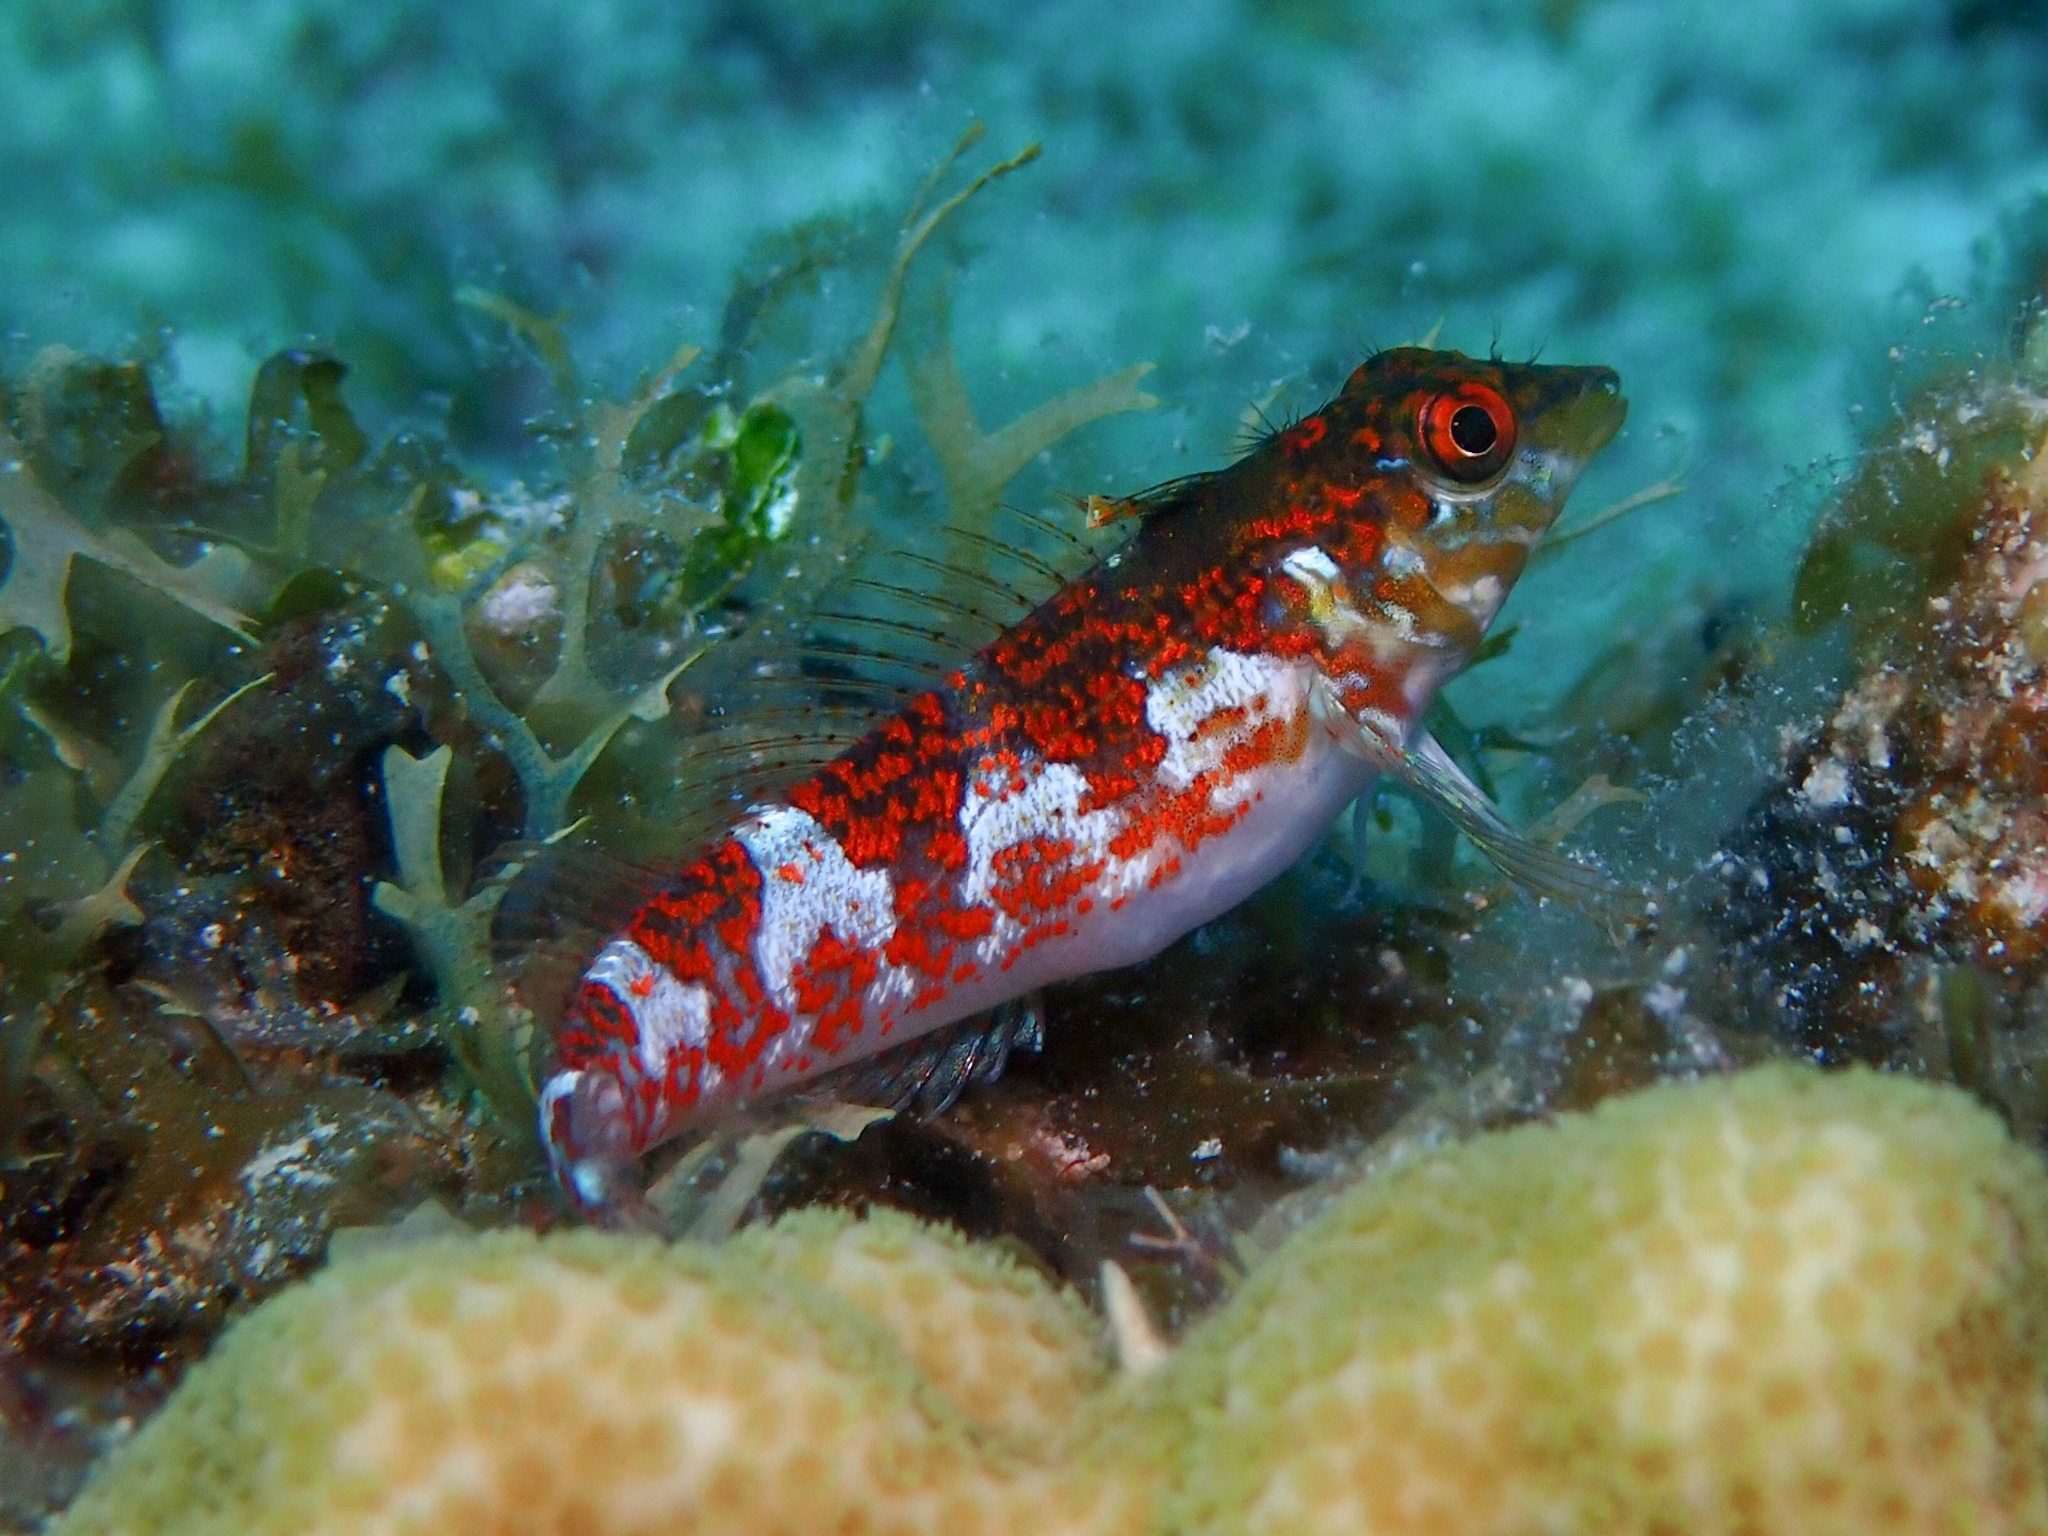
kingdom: Animalia
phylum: Chordata
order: Perciformes
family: Labrisomidae
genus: Malacoctenus
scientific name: Malacoctenus triangulatus
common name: Saddled blenny
